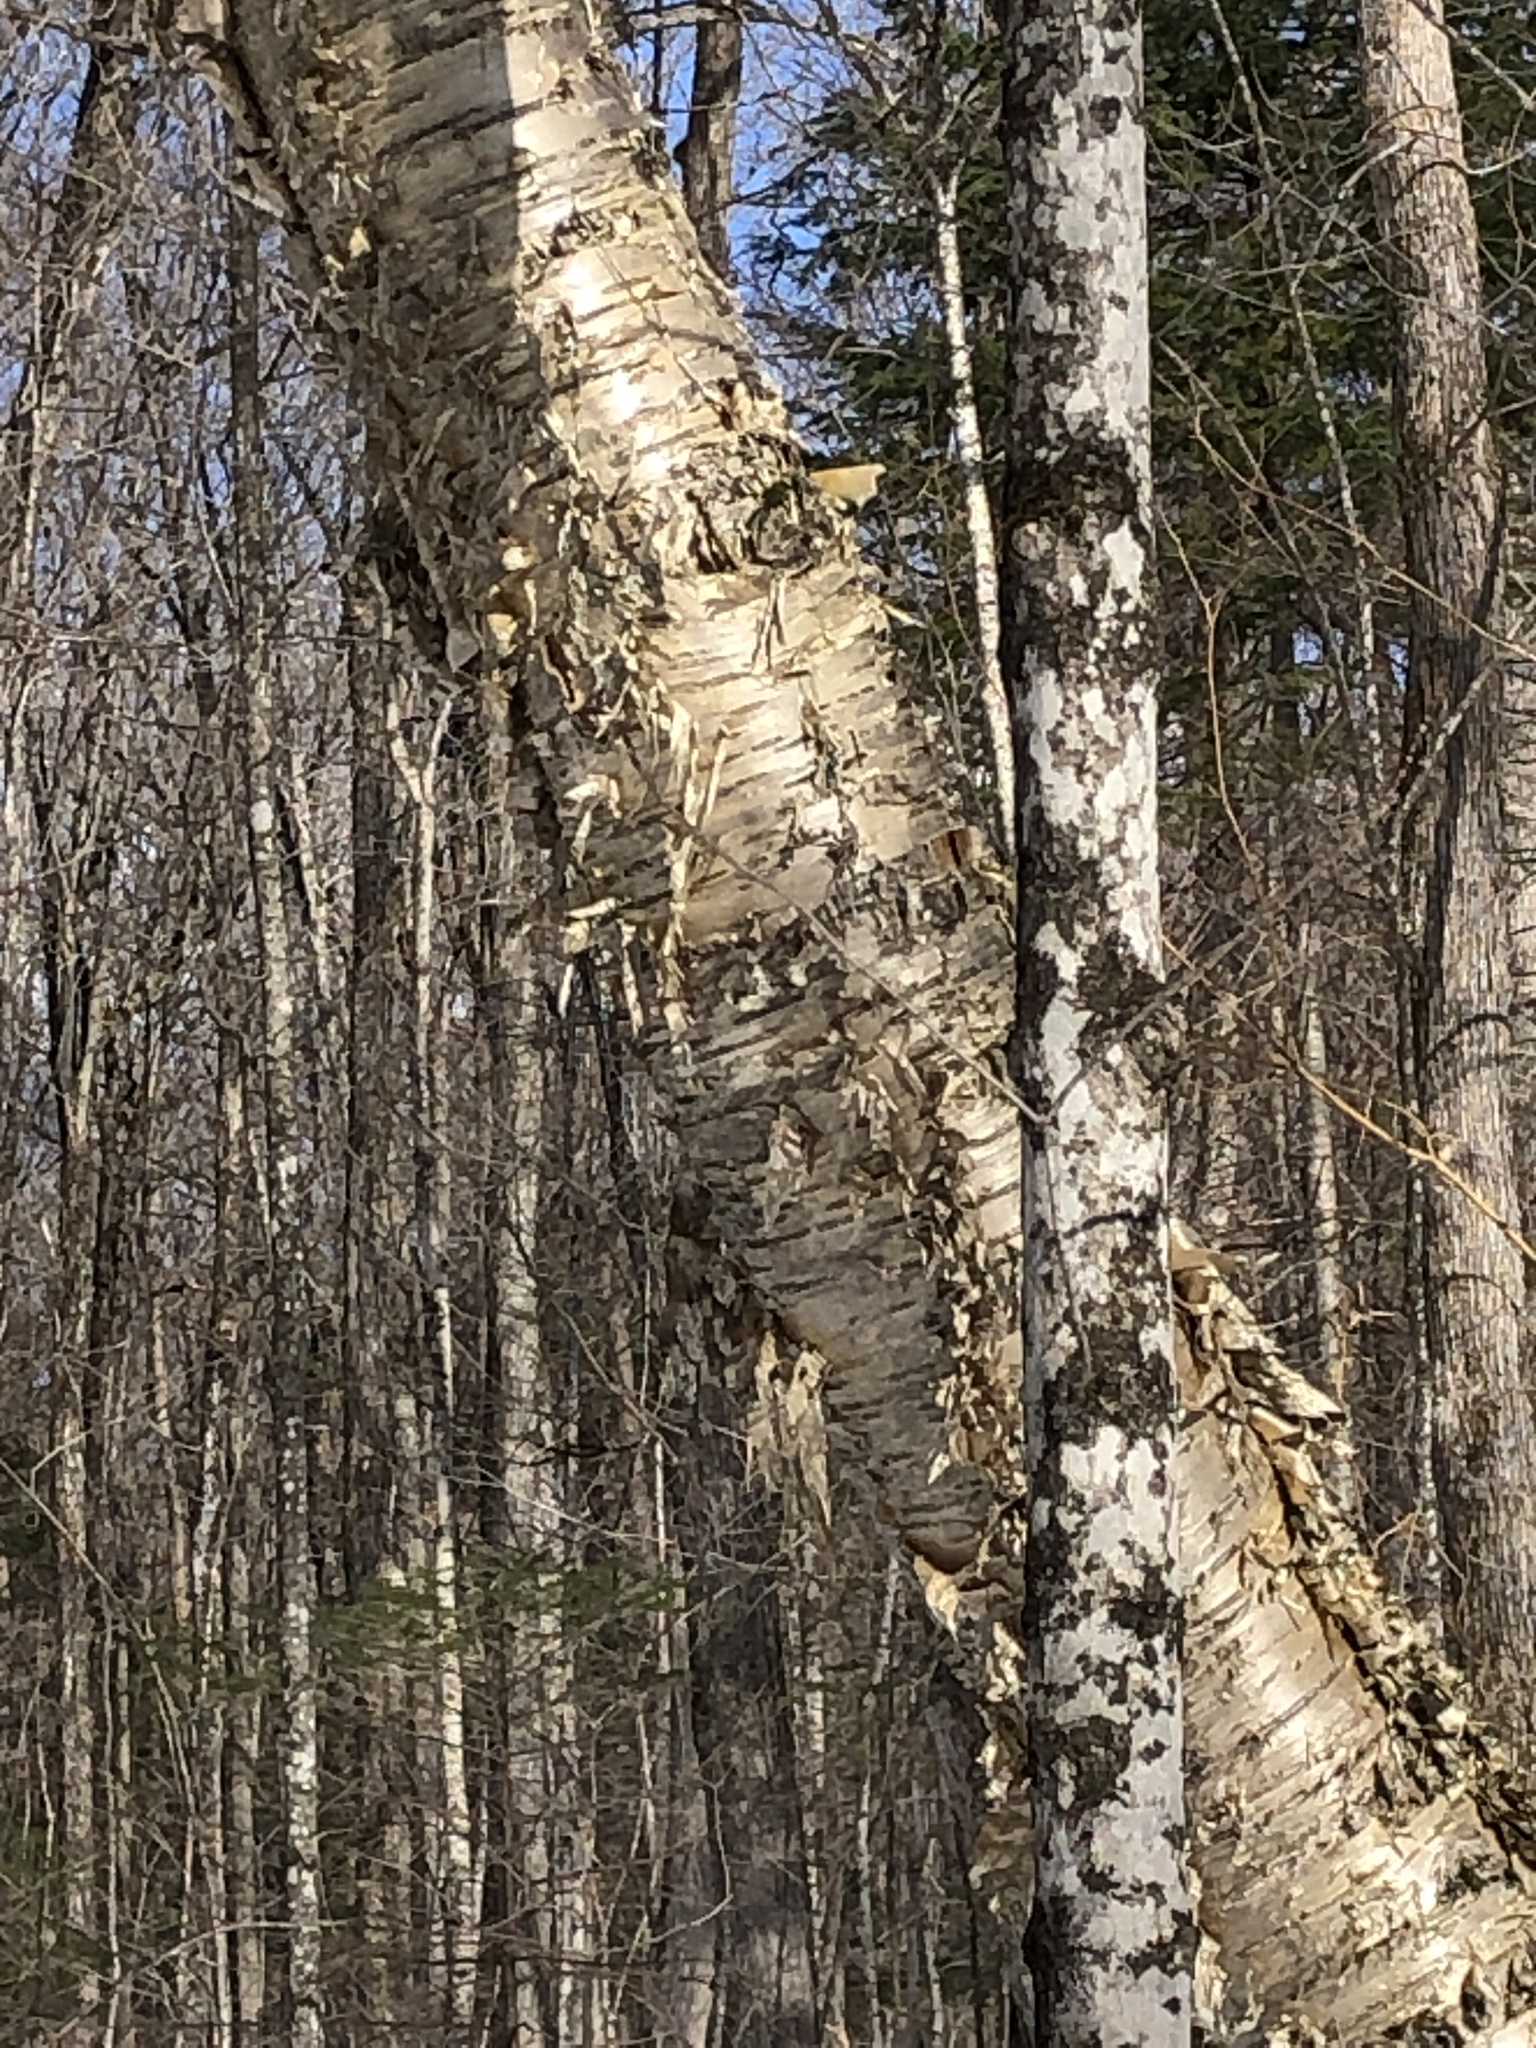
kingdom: Plantae
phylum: Tracheophyta
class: Magnoliopsida
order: Fagales
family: Betulaceae
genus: Betula
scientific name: Betula alleghaniensis
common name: Yellow birch
